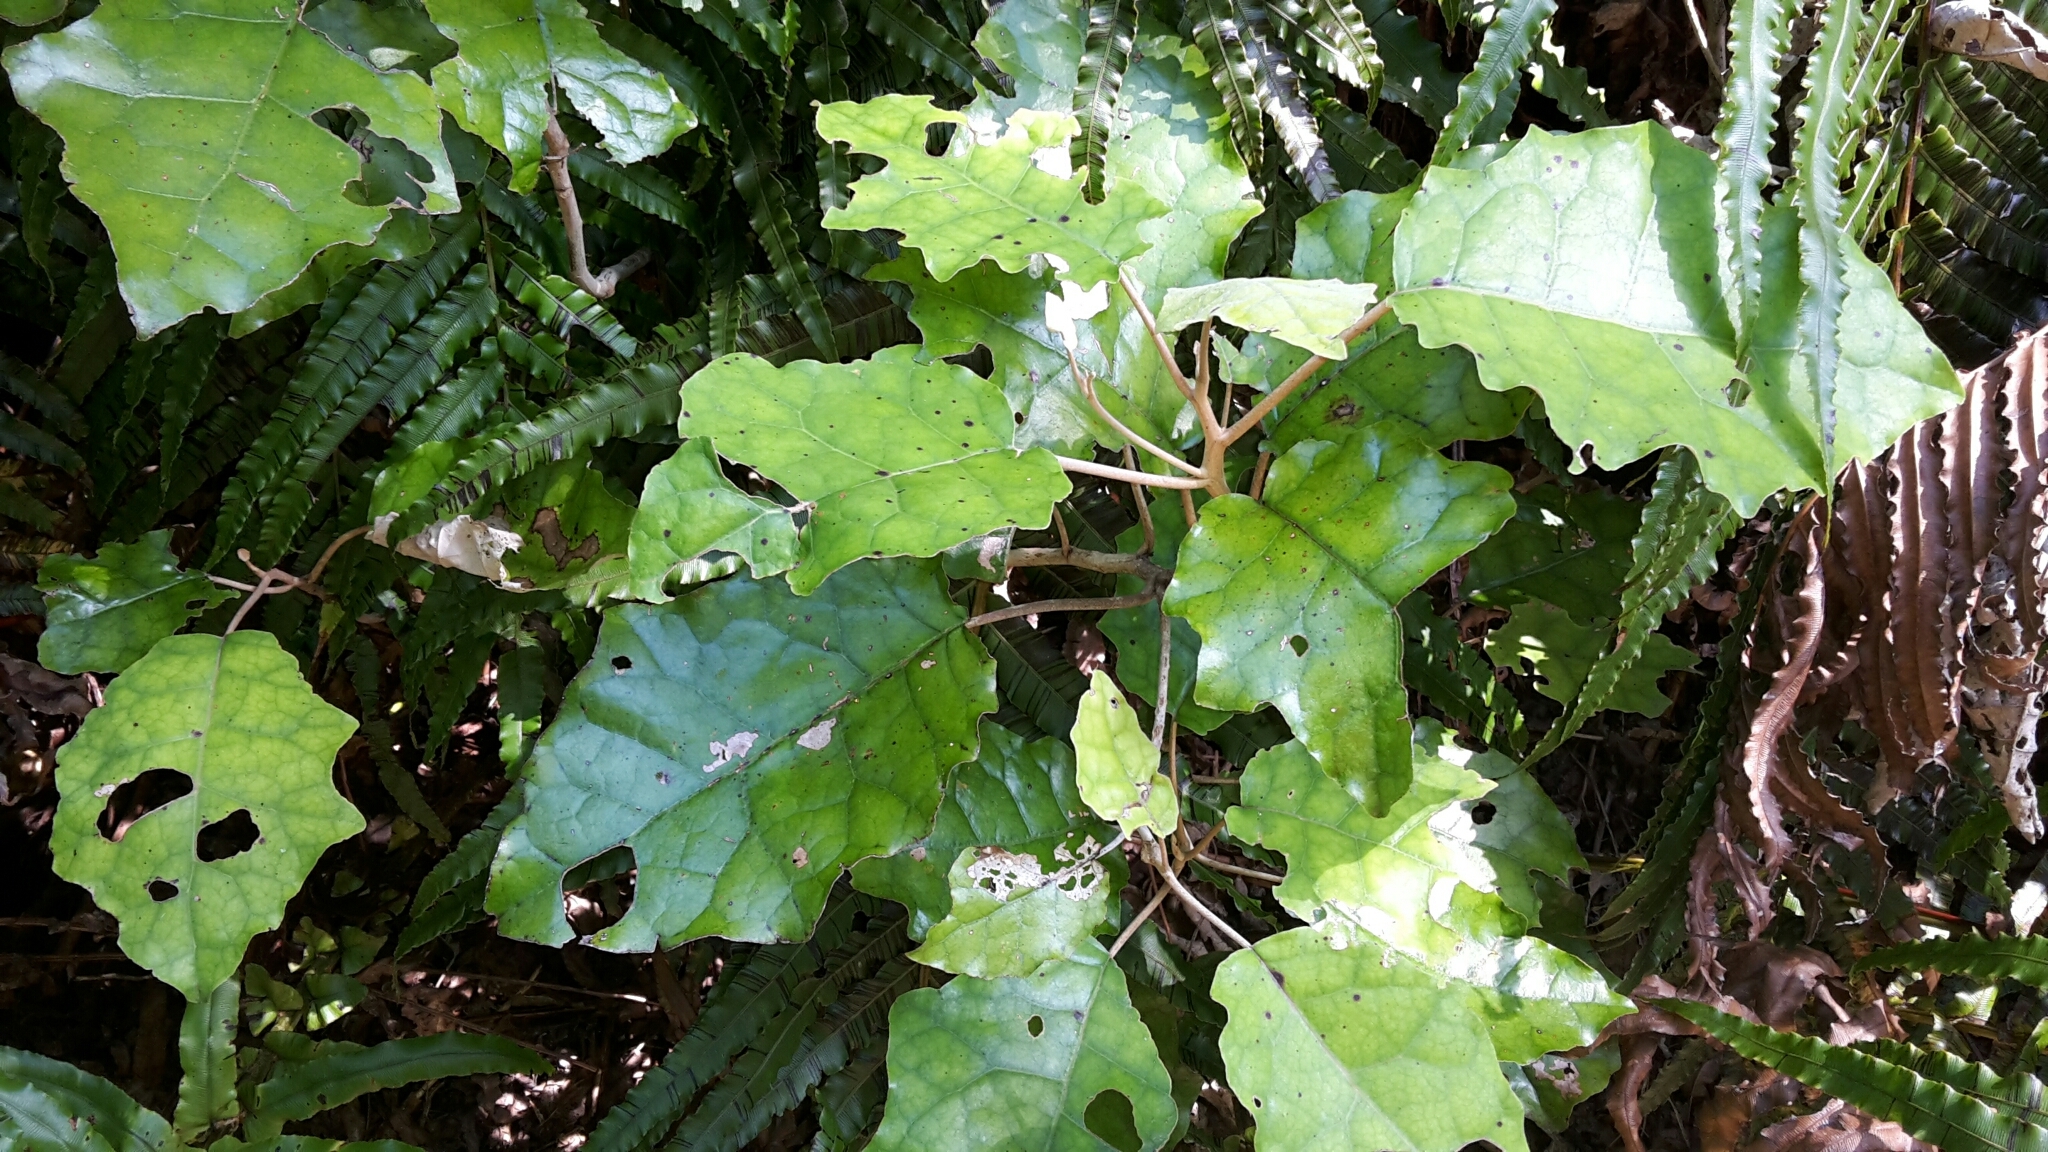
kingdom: Plantae
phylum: Tracheophyta
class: Magnoliopsida
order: Asterales
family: Asteraceae
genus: Brachyglottis
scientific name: Brachyglottis repanda
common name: Hedge ragwort
